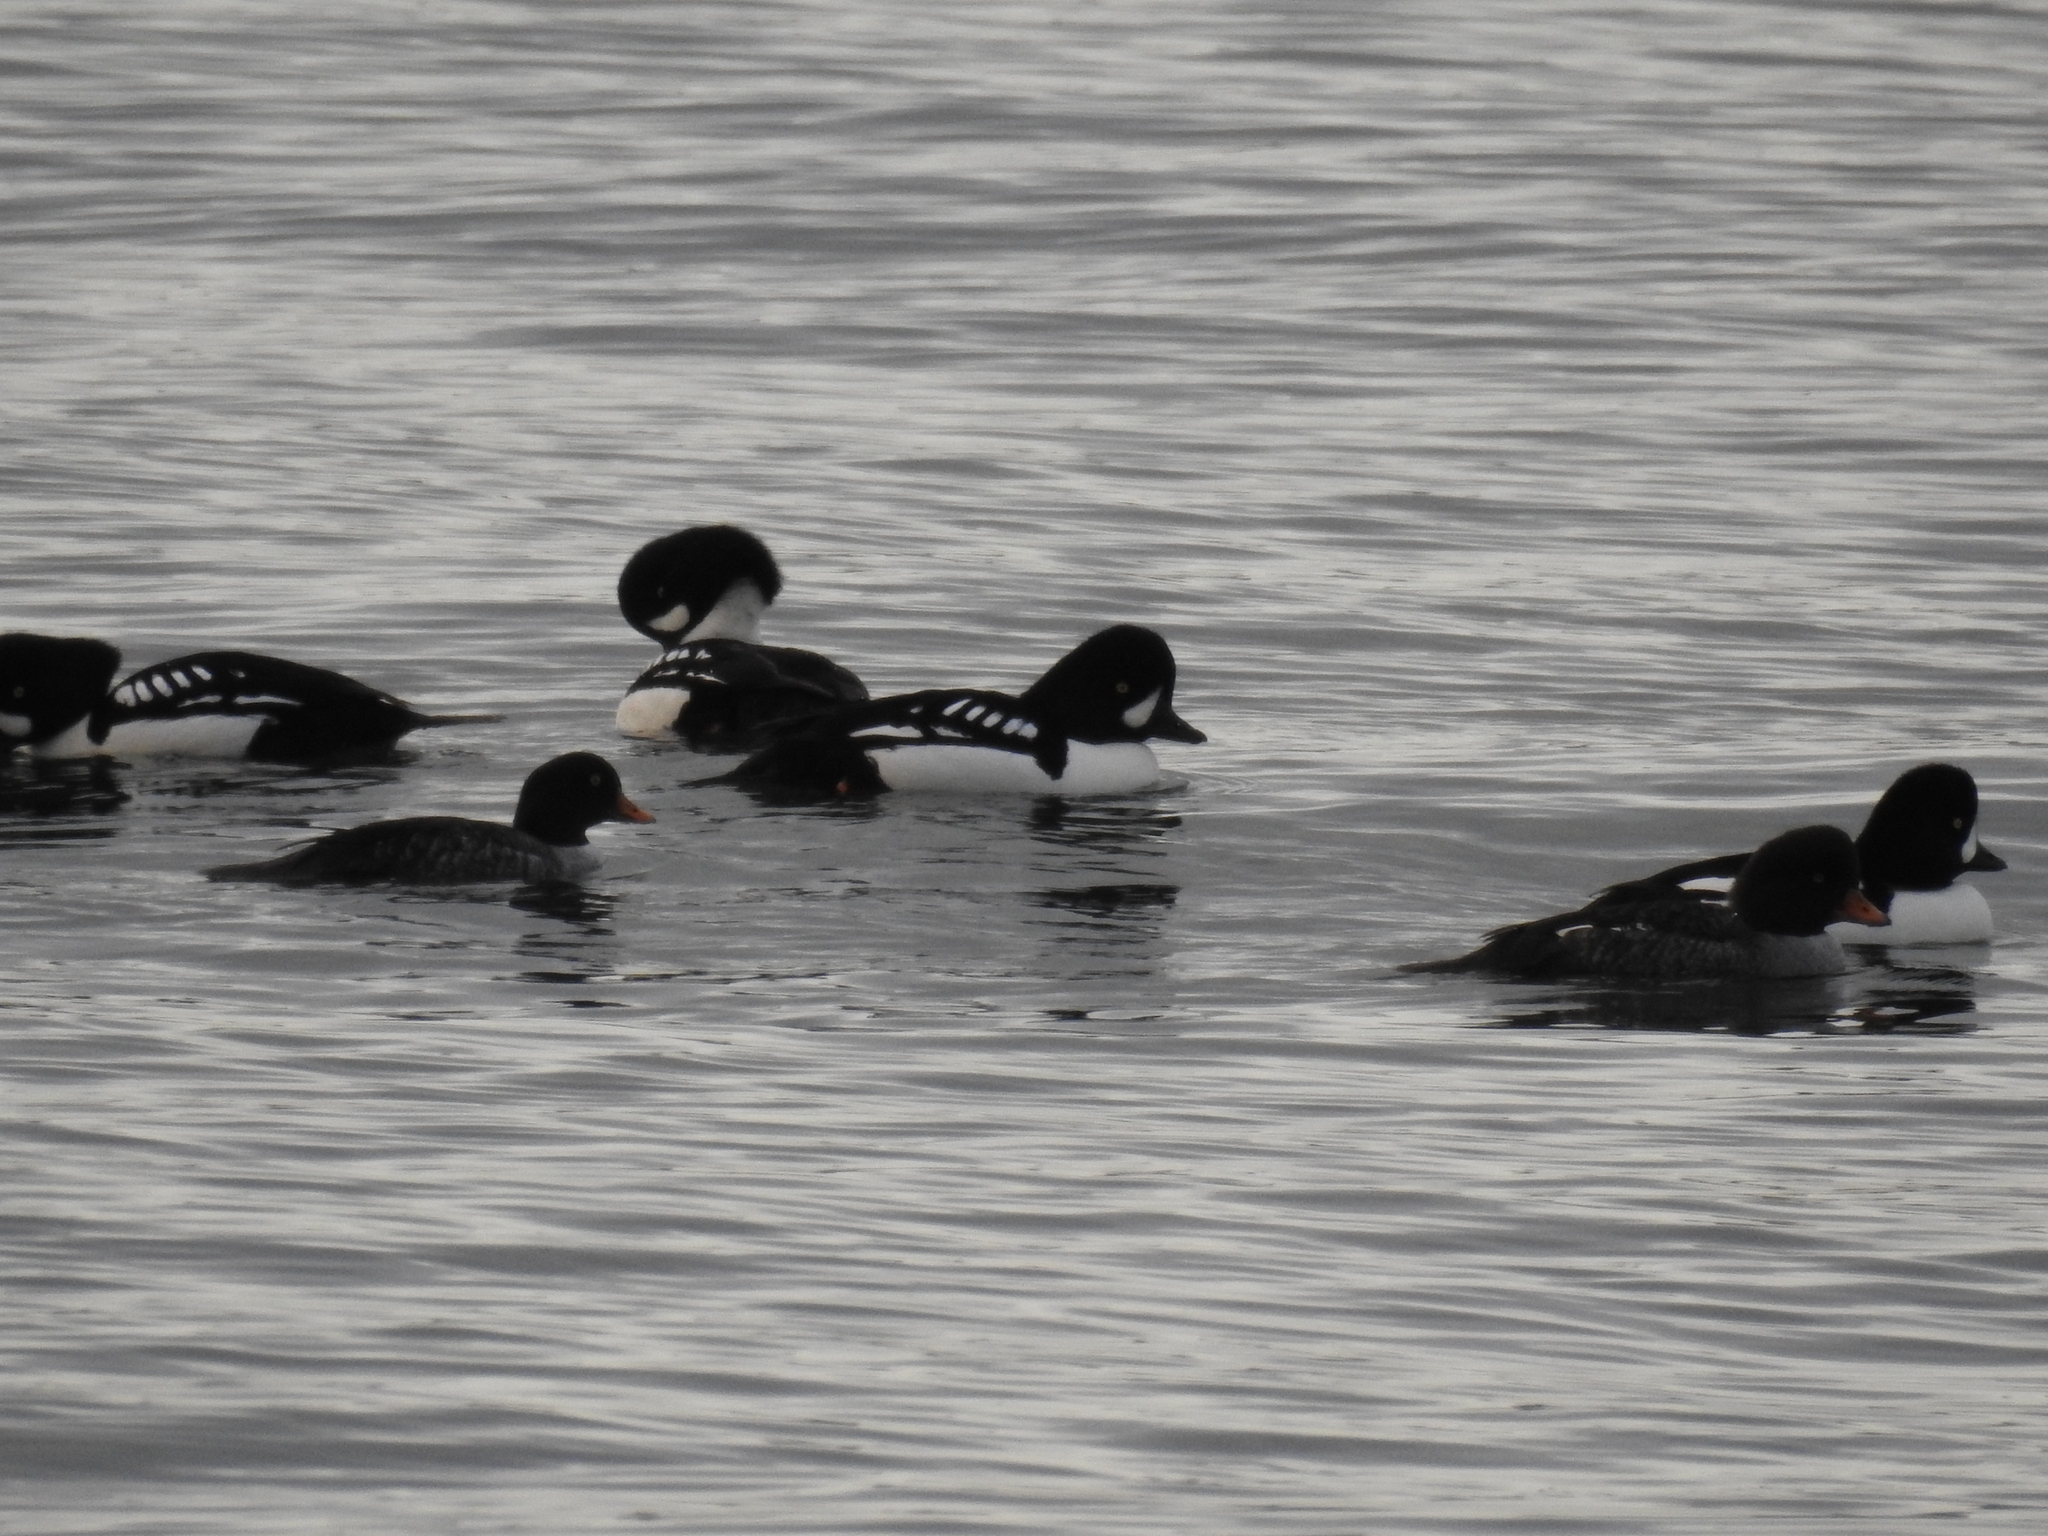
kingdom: Animalia
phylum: Chordata
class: Aves
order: Anseriformes
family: Anatidae
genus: Bucephala
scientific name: Bucephala islandica
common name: Barrow's goldeneye
